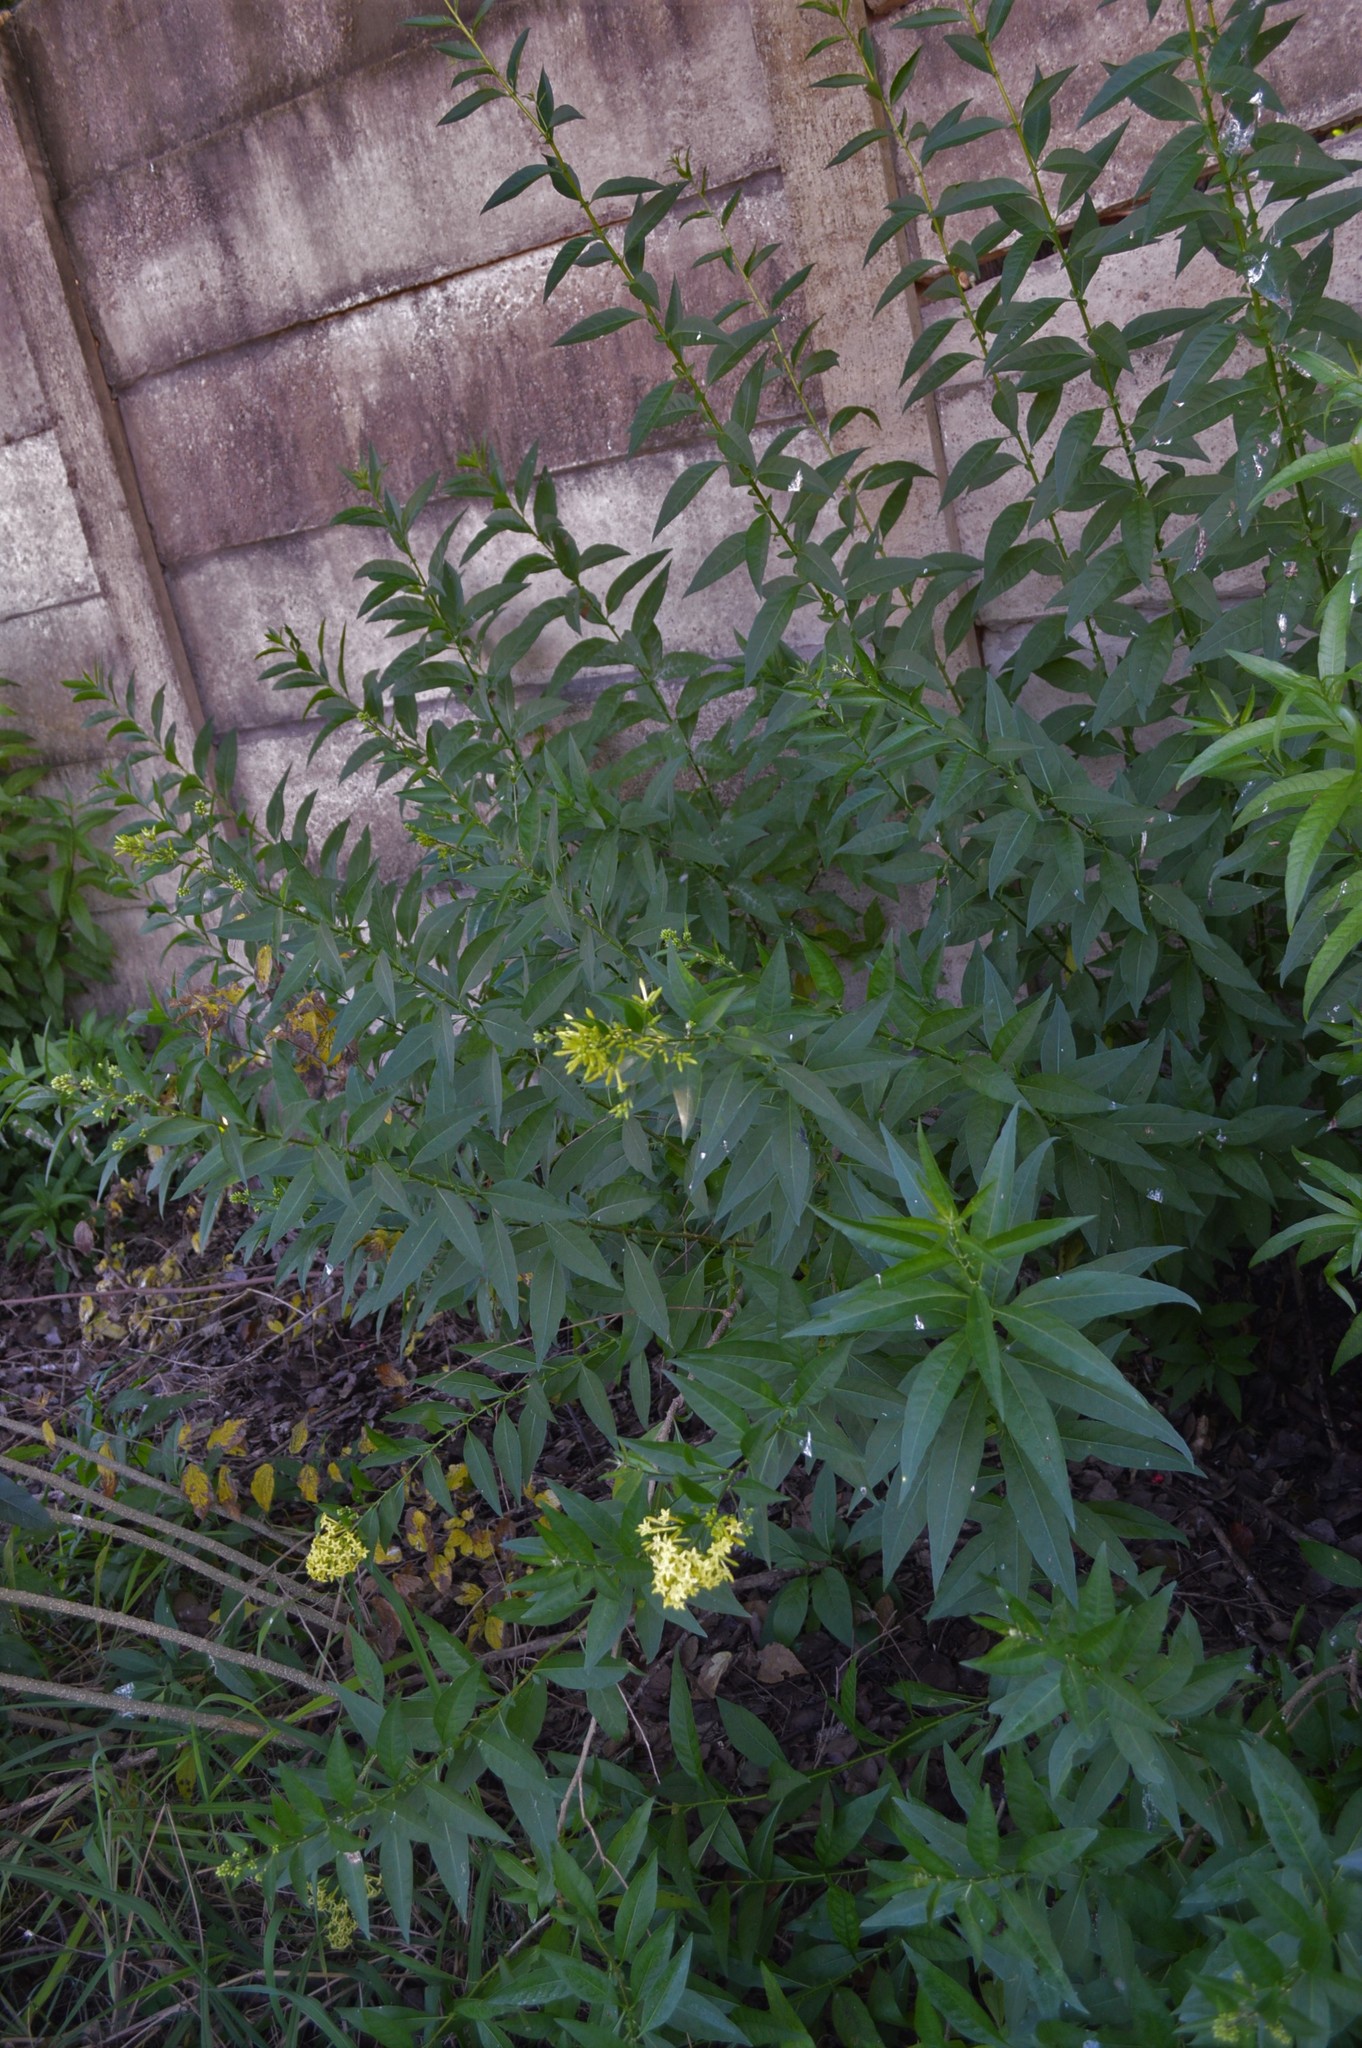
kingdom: Plantae
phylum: Tracheophyta
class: Magnoliopsida
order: Solanales
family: Solanaceae
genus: Cestrum
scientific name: Cestrum parqui
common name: Chilean cestrum
